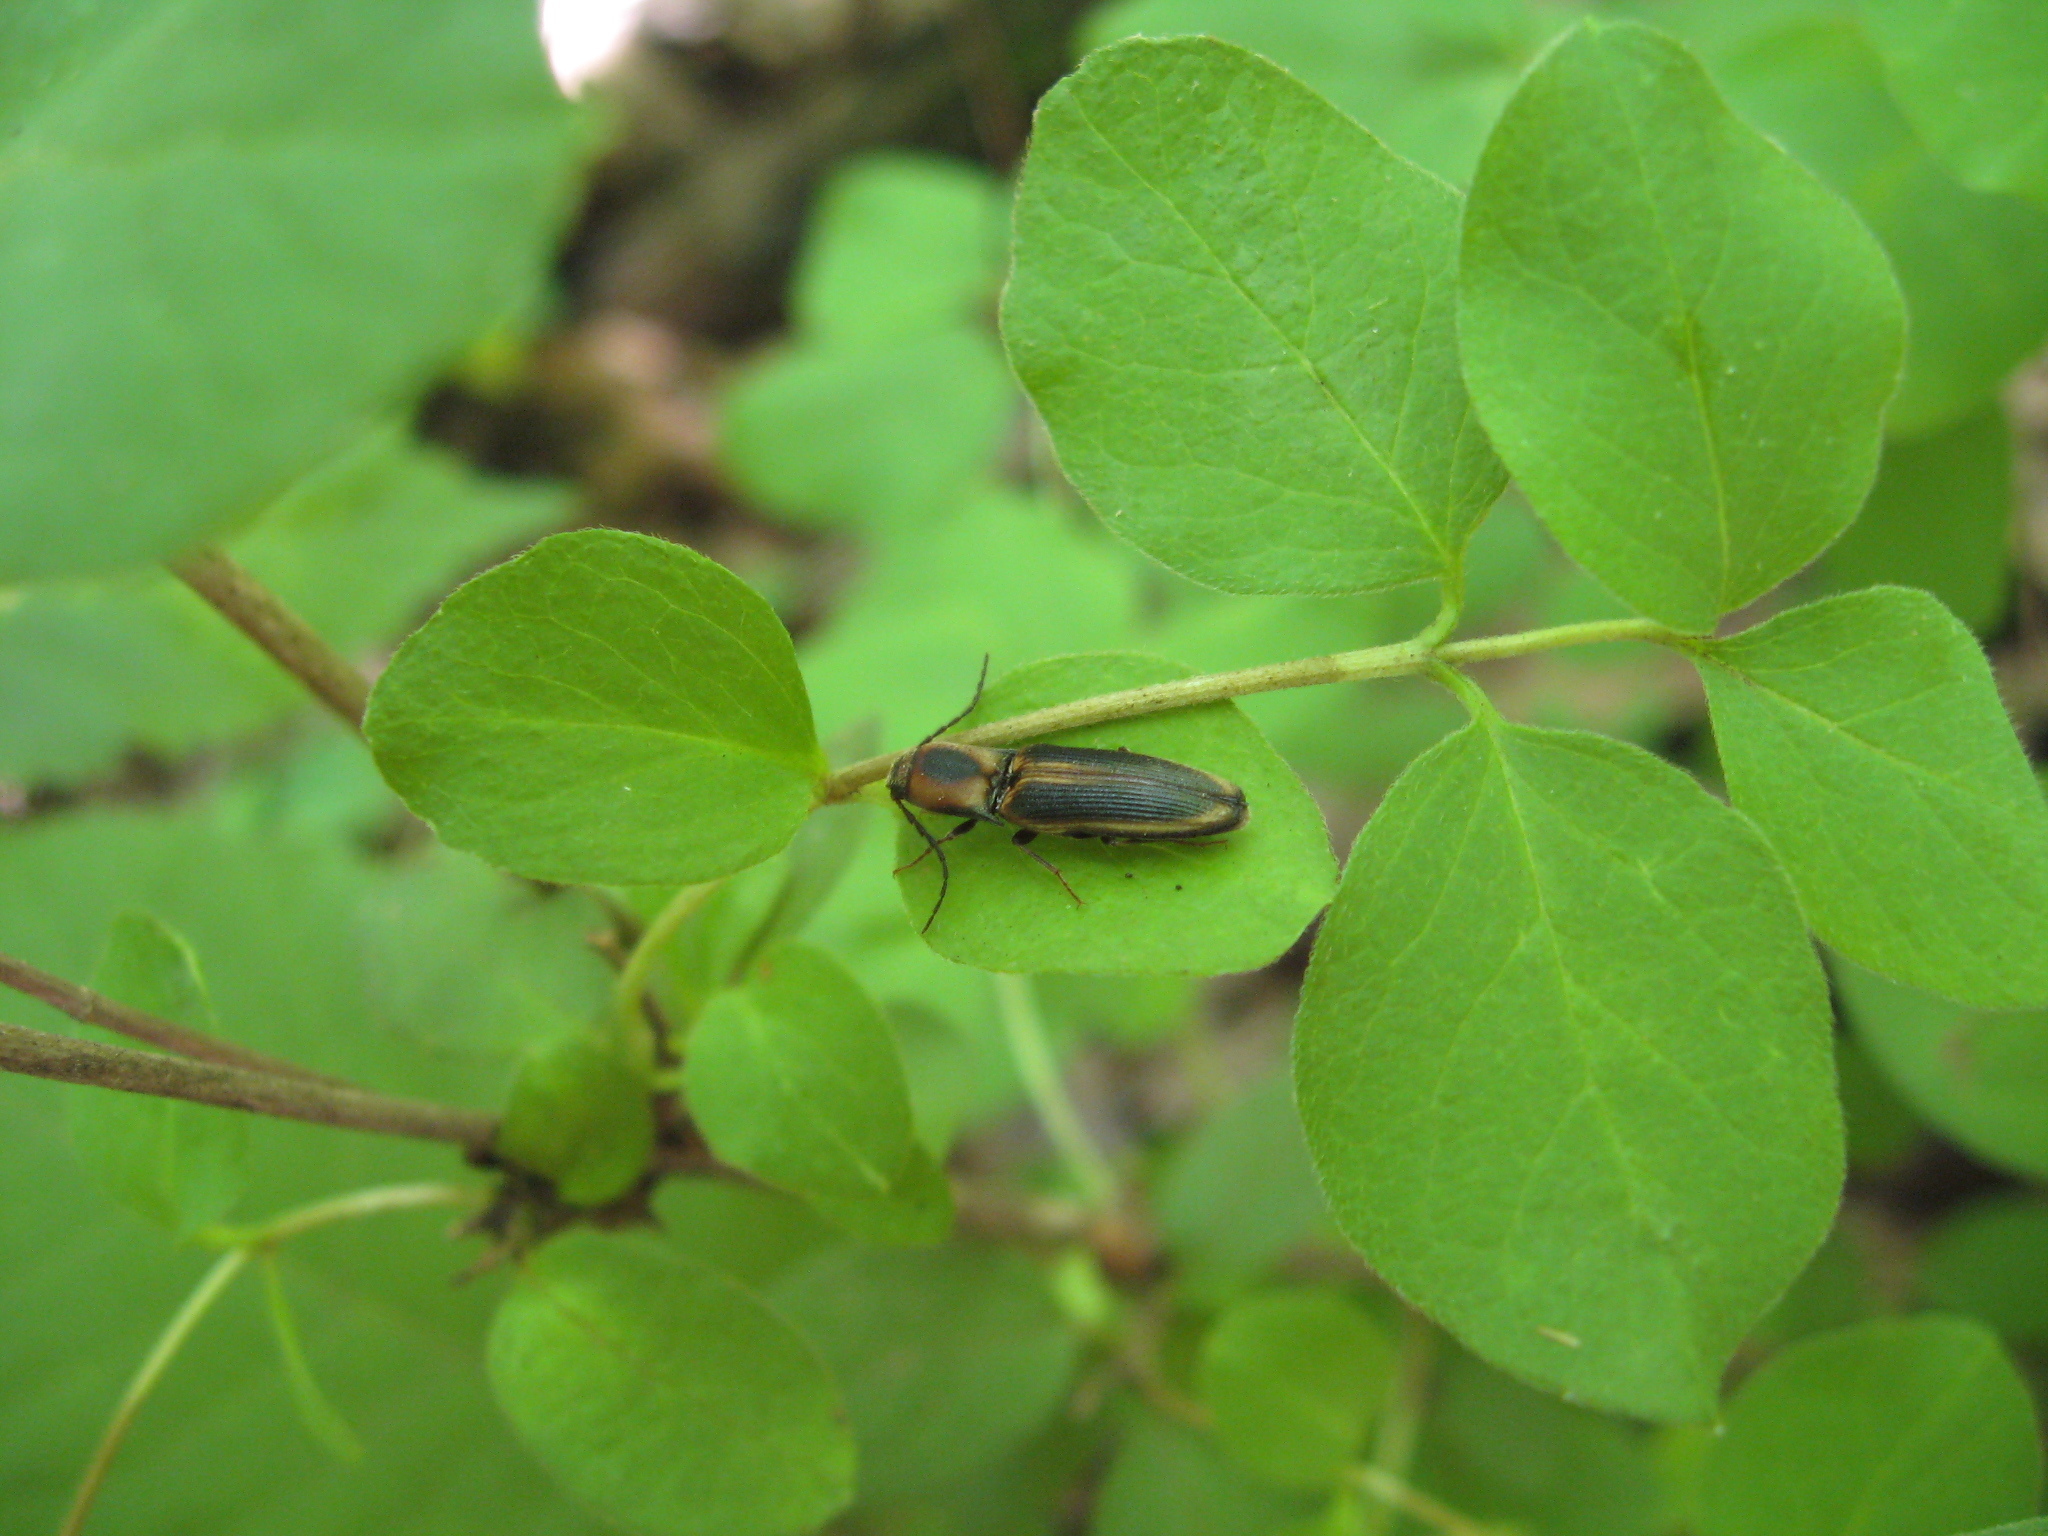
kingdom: Animalia
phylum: Arthropoda
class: Insecta
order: Coleoptera
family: Elateridae
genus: Megapenthes
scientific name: Megapenthes
